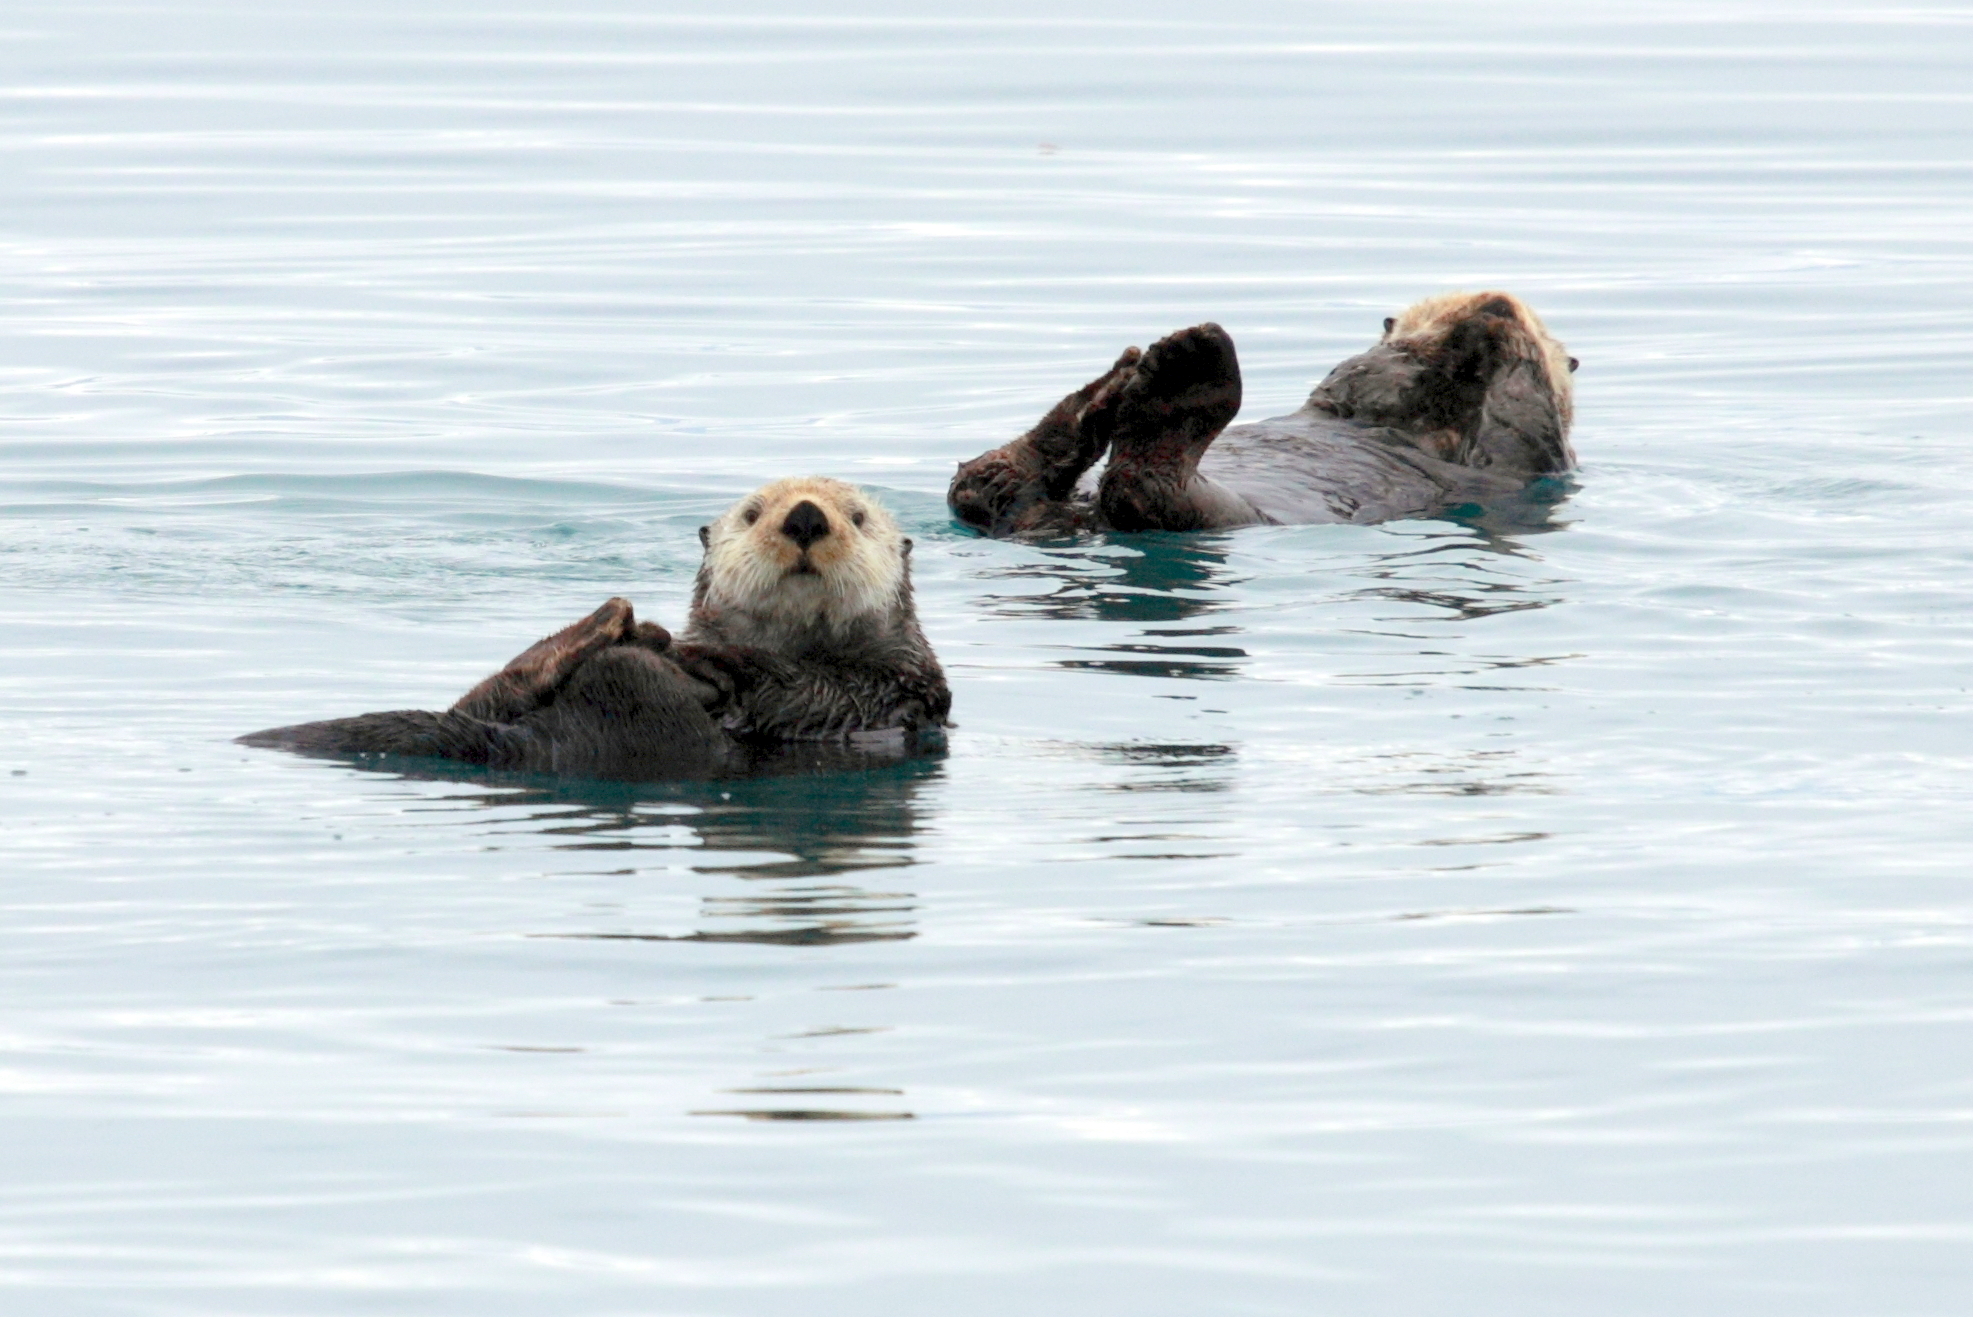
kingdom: Animalia
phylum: Chordata
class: Mammalia
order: Carnivora
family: Mustelidae
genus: Enhydra
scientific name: Enhydra lutris
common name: Sea otter
